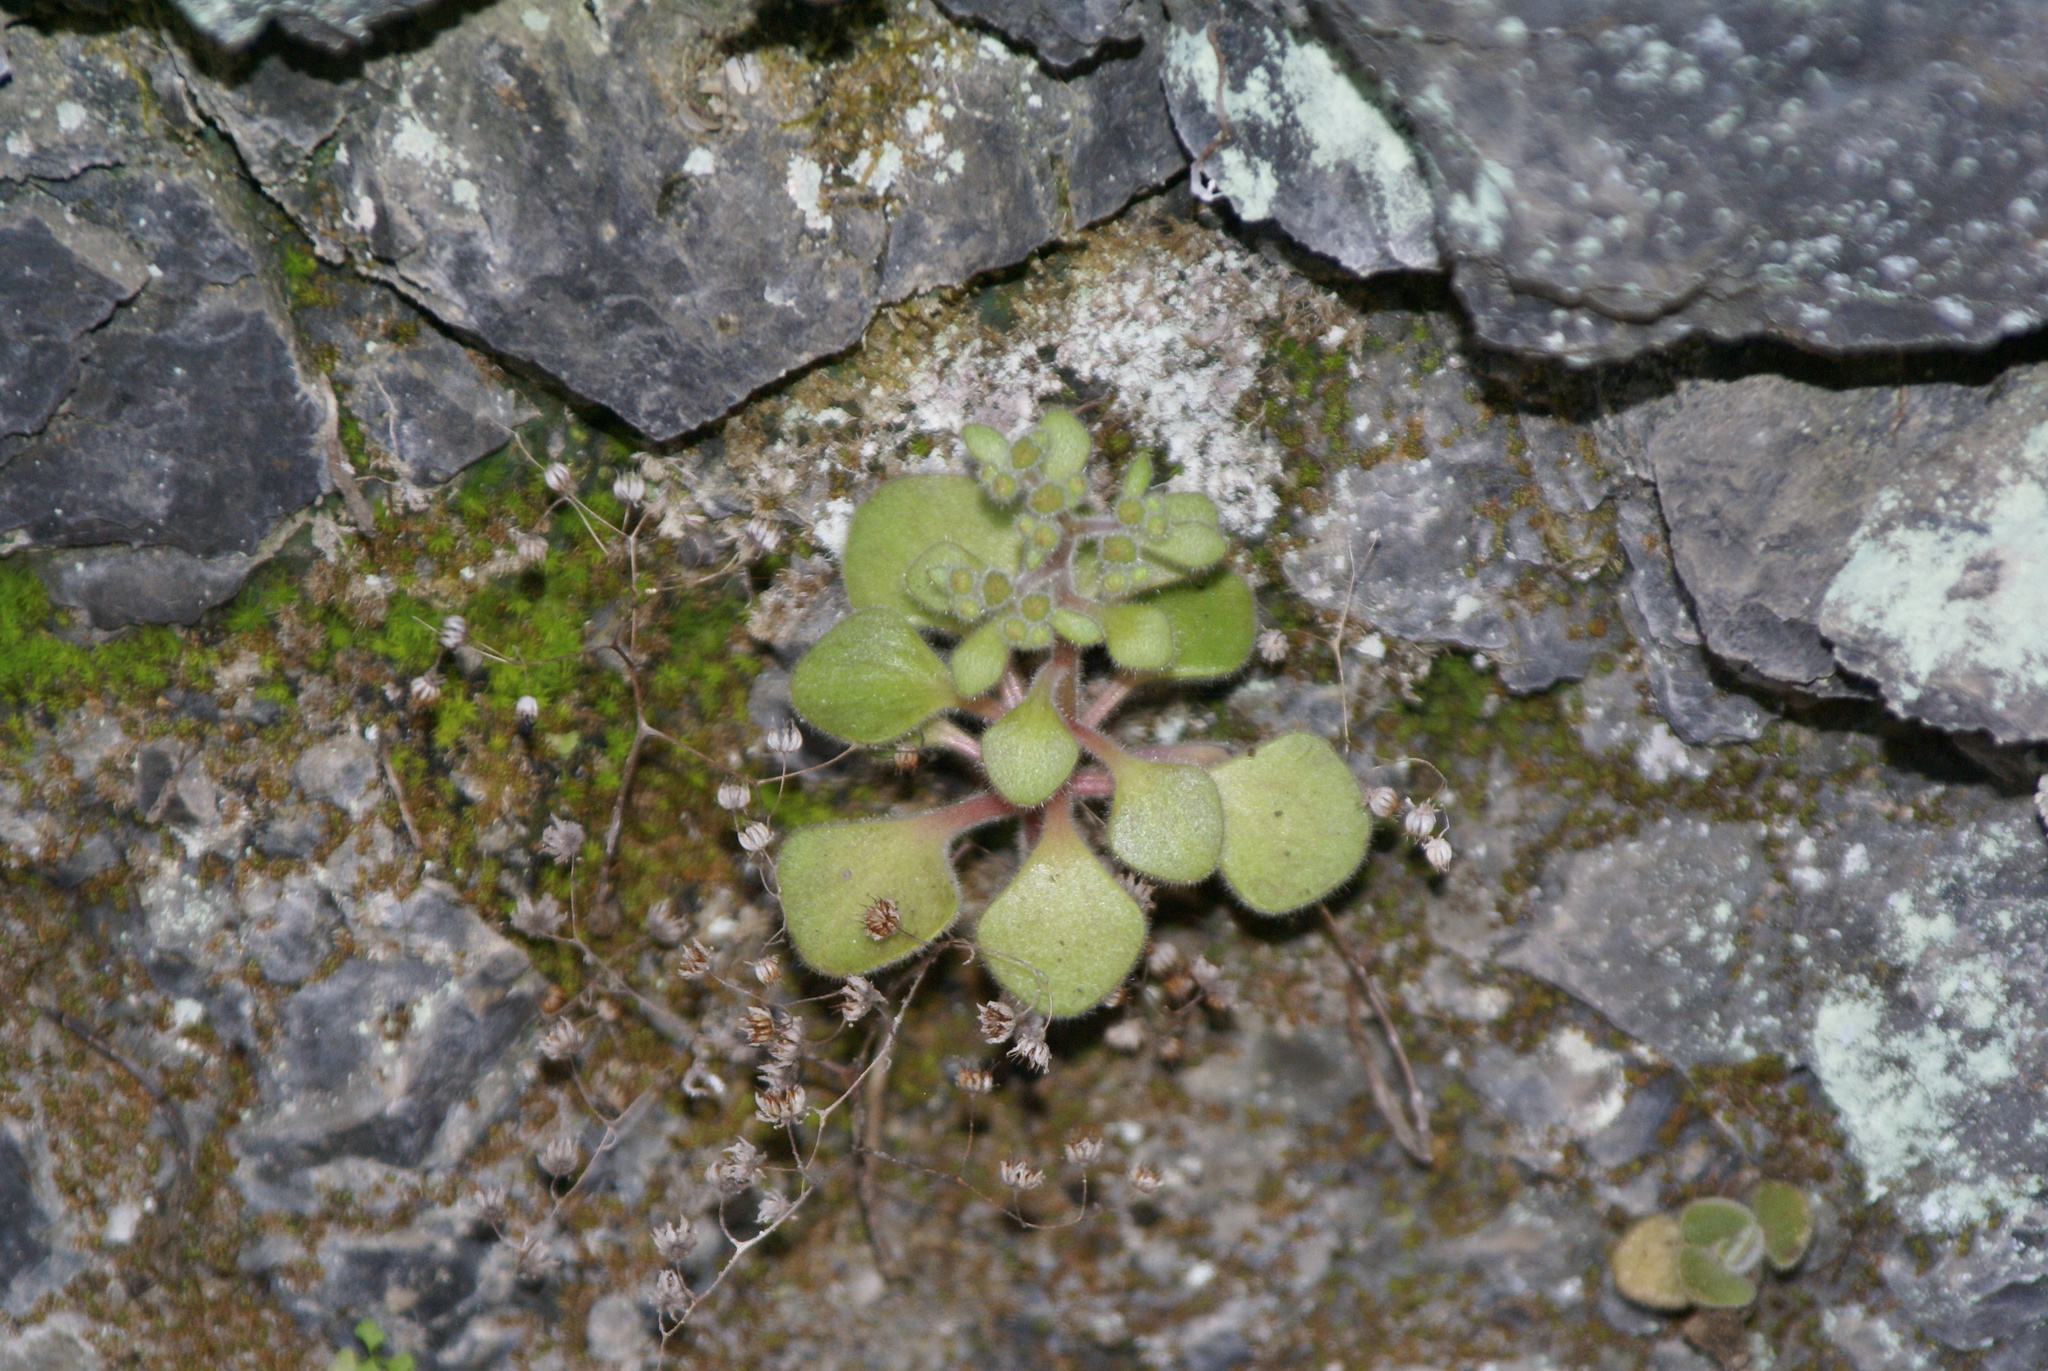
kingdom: Plantae
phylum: Tracheophyta
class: Magnoliopsida
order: Saxifragales
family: Crassulaceae
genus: Aichryson
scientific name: Aichryson laxum
